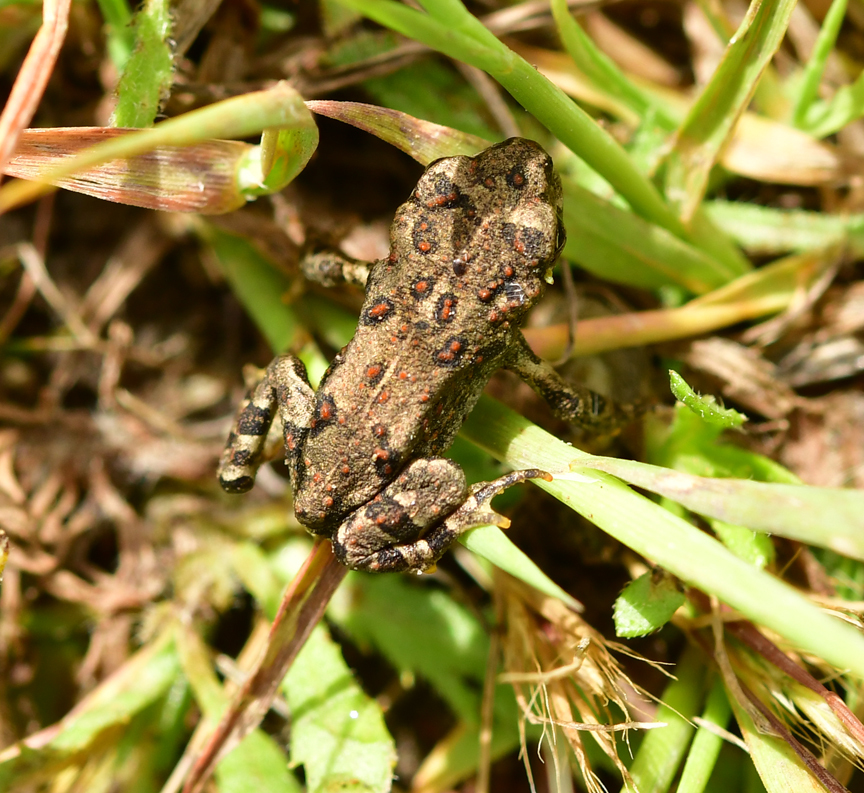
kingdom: Animalia
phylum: Chordata
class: Amphibia
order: Anura
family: Bufonidae
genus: Anaxyrus
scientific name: Anaxyrus boreas
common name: Western toad
